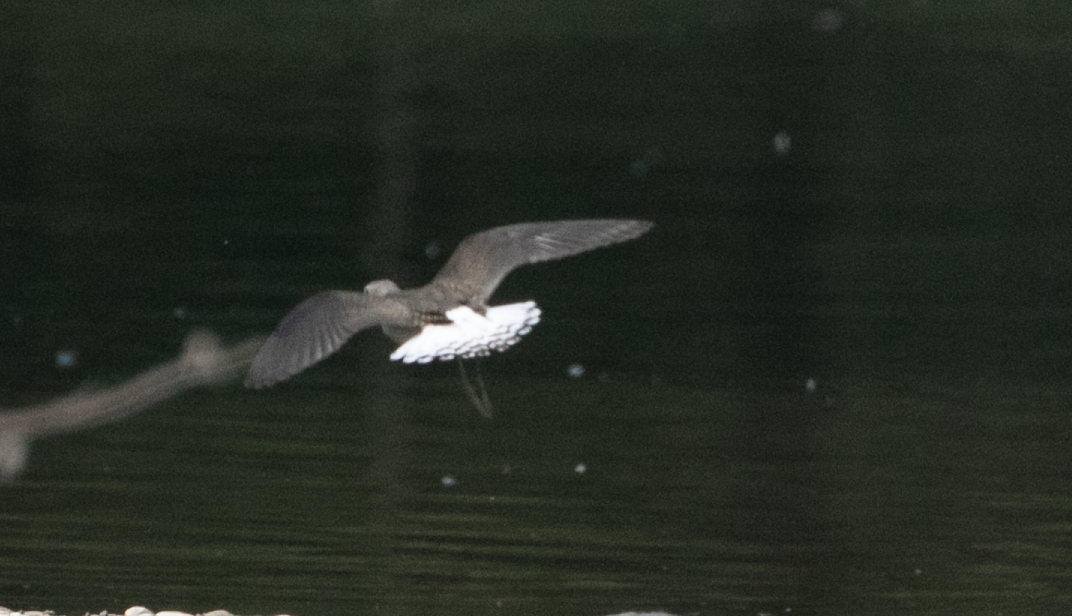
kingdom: Animalia
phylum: Chordata
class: Aves
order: Charadriiformes
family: Scolopacidae
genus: Tringa
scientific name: Tringa ochropus
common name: Green sandpiper
